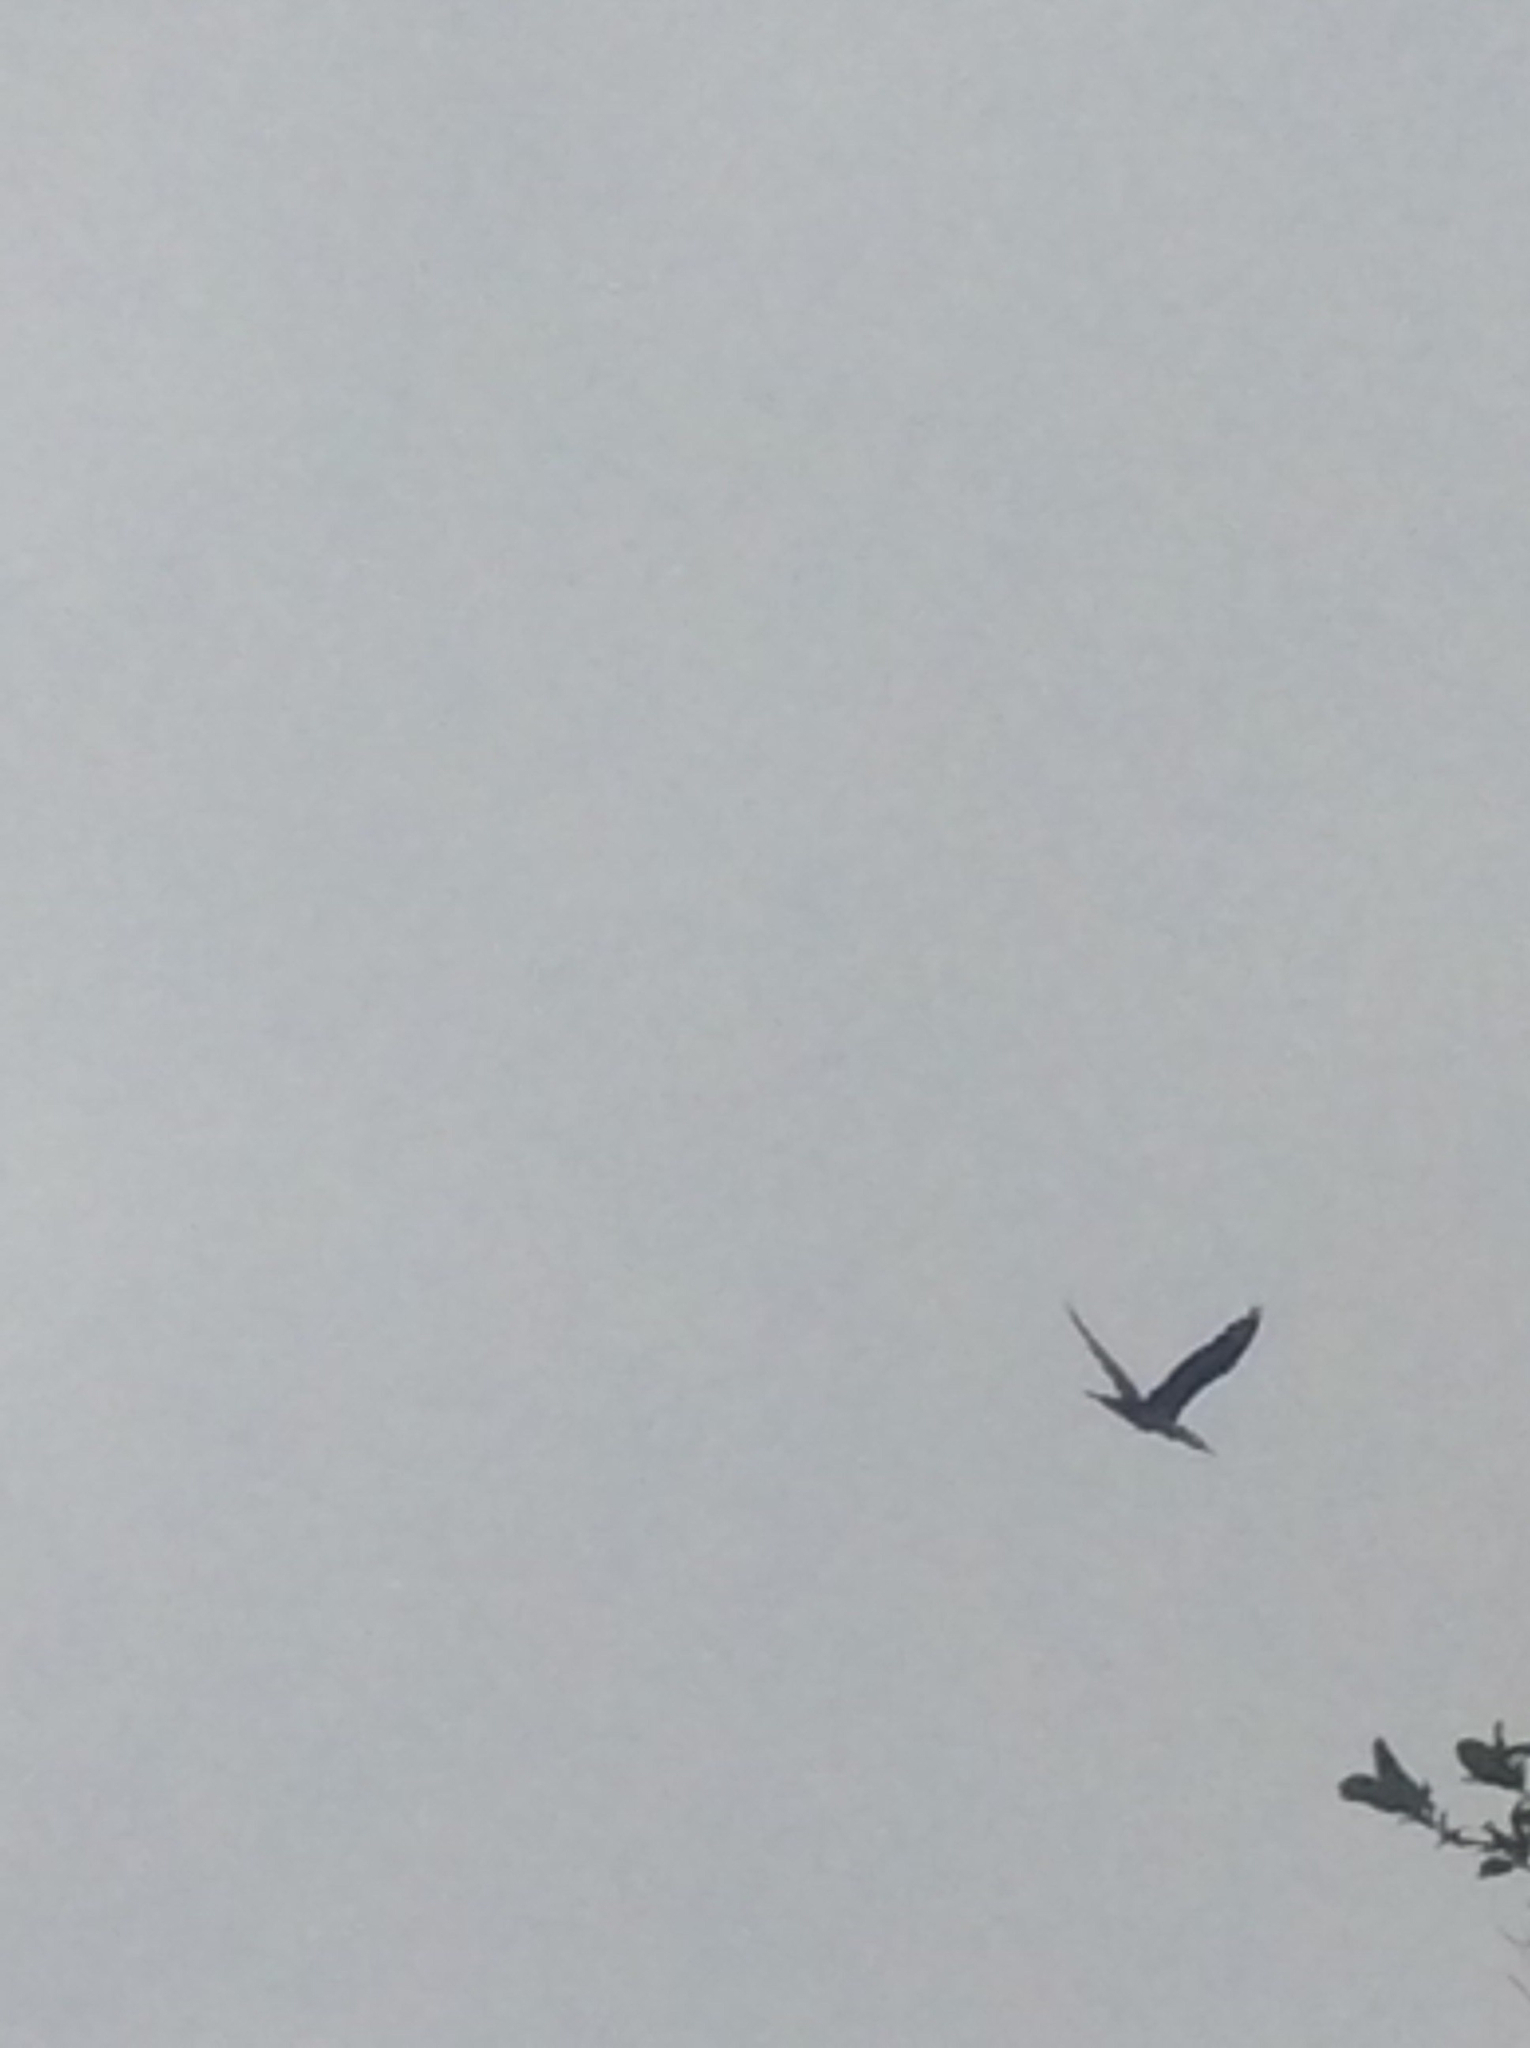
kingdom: Animalia
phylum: Chordata
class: Aves
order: Suliformes
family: Phalacrocoracidae
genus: Phalacrocorax
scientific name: Phalacrocorax varius
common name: Pied cormorant
